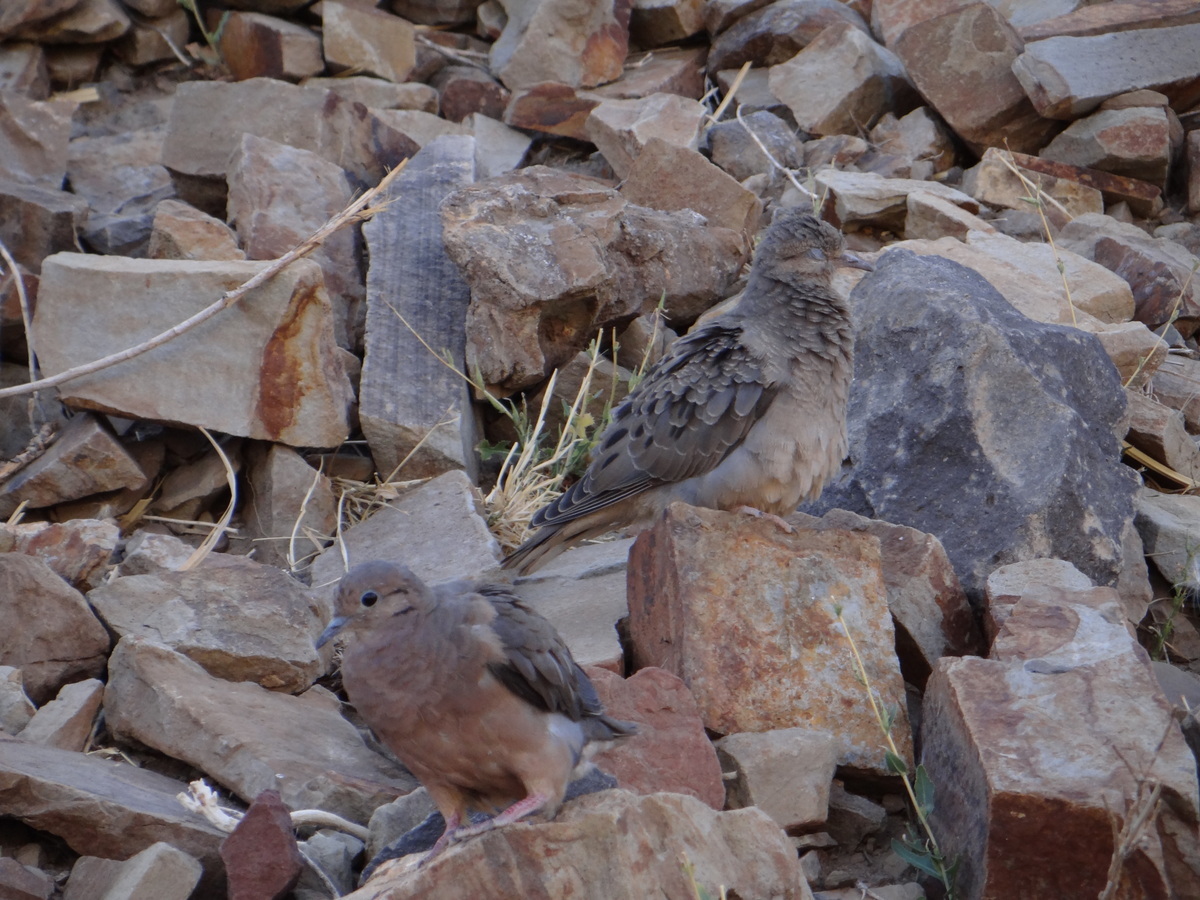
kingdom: Animalia
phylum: Chordata
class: Aves
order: Columbiformes
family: Columbidae
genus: Zenaida
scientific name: Zenaida auriculata
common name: Eared dove
